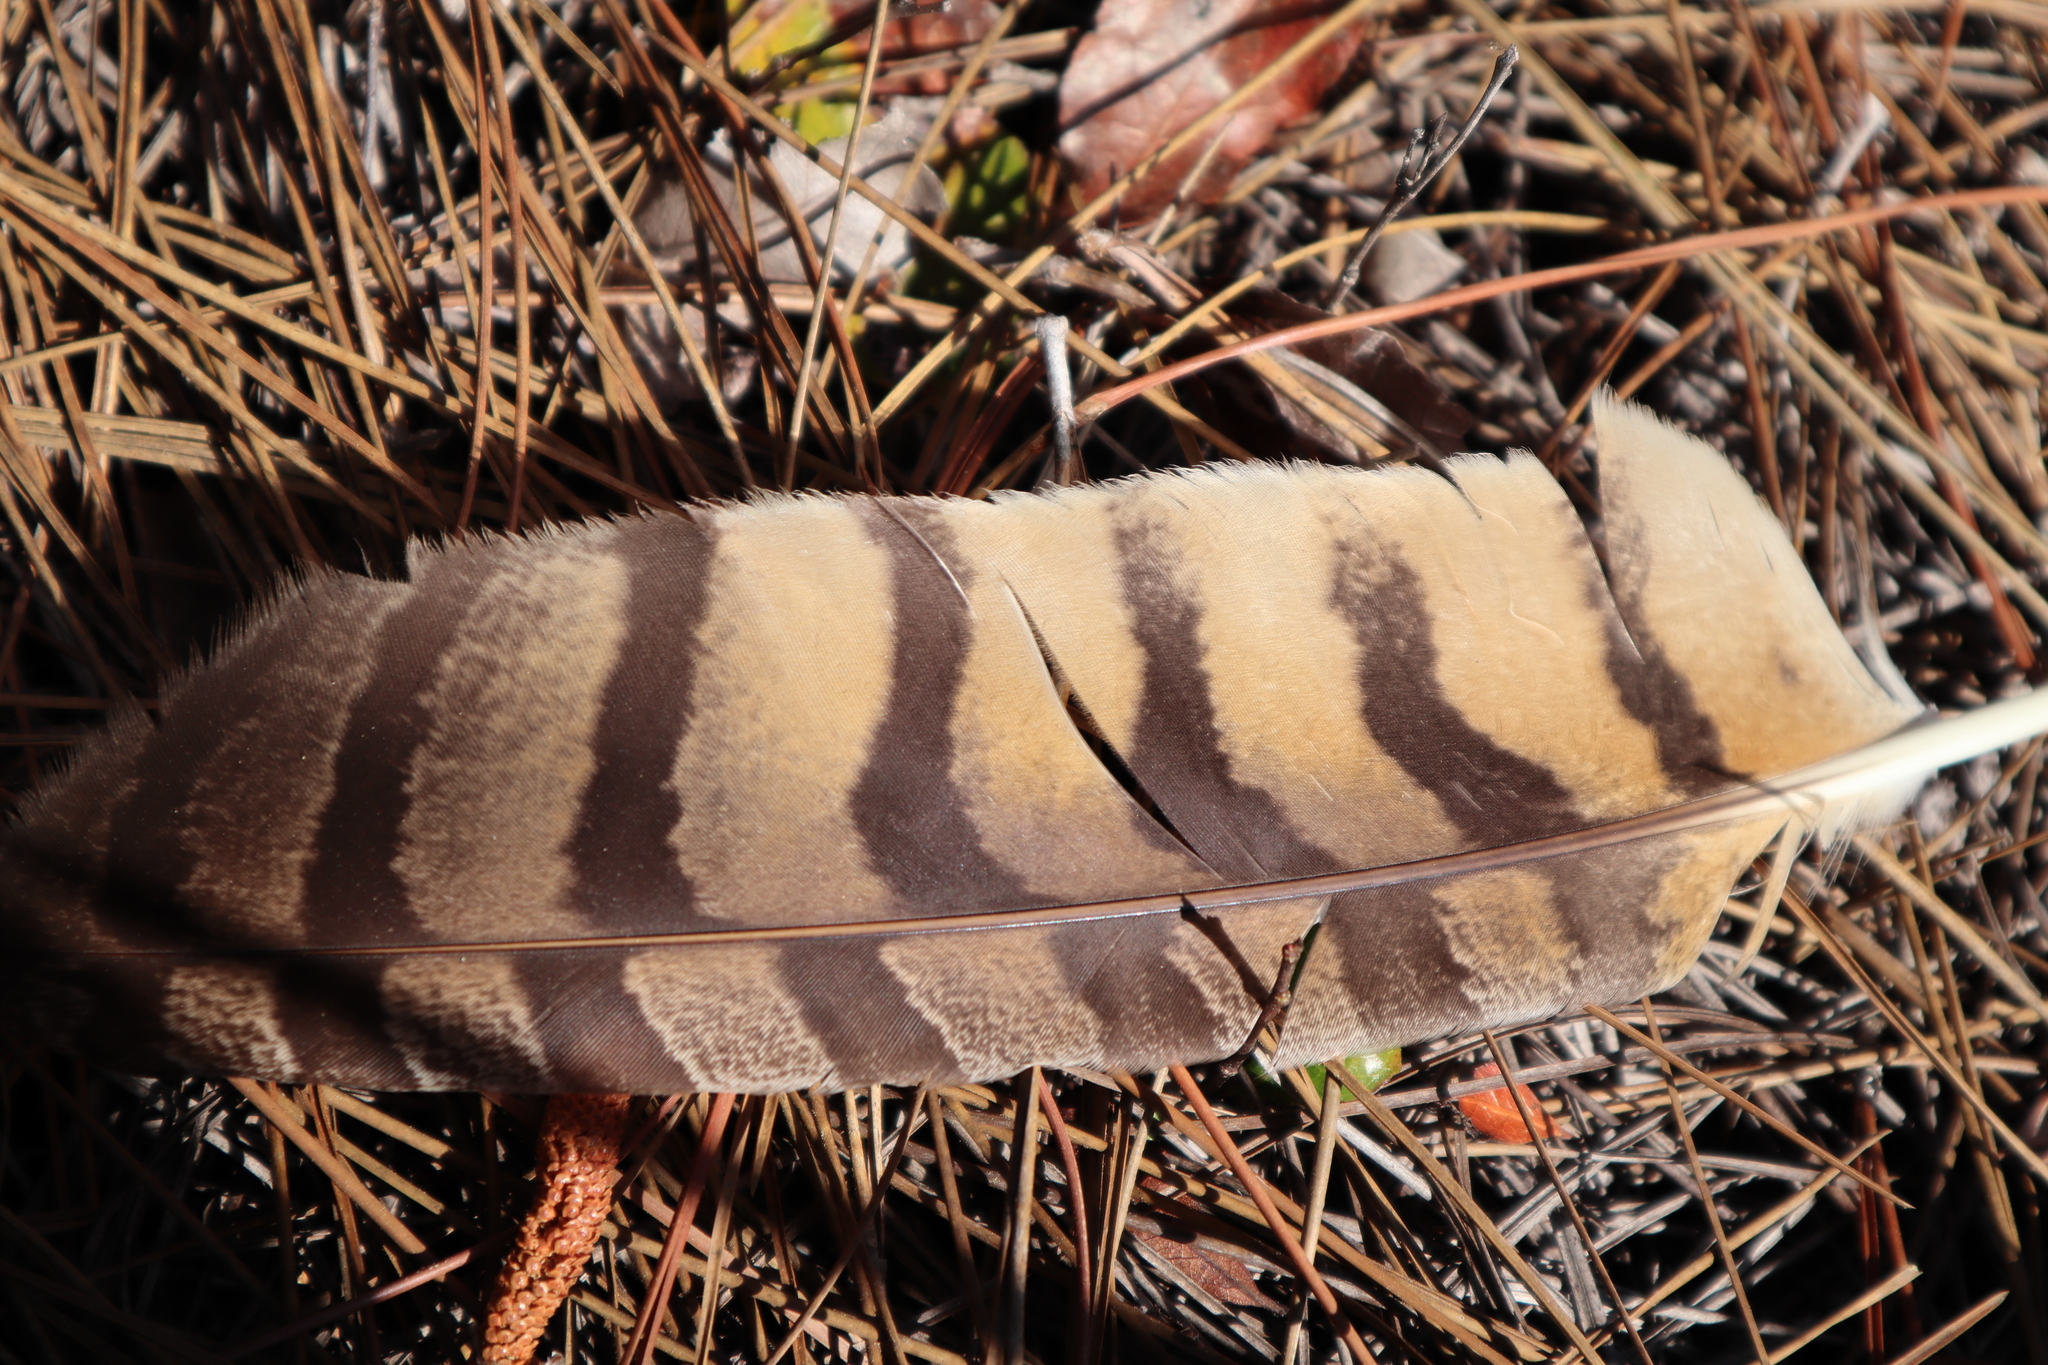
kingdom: Animalia
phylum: Chordata
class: Aves
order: Strigiformes
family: Strigidae
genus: Bubo
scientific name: Bubo virginianus
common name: Great horned owl
